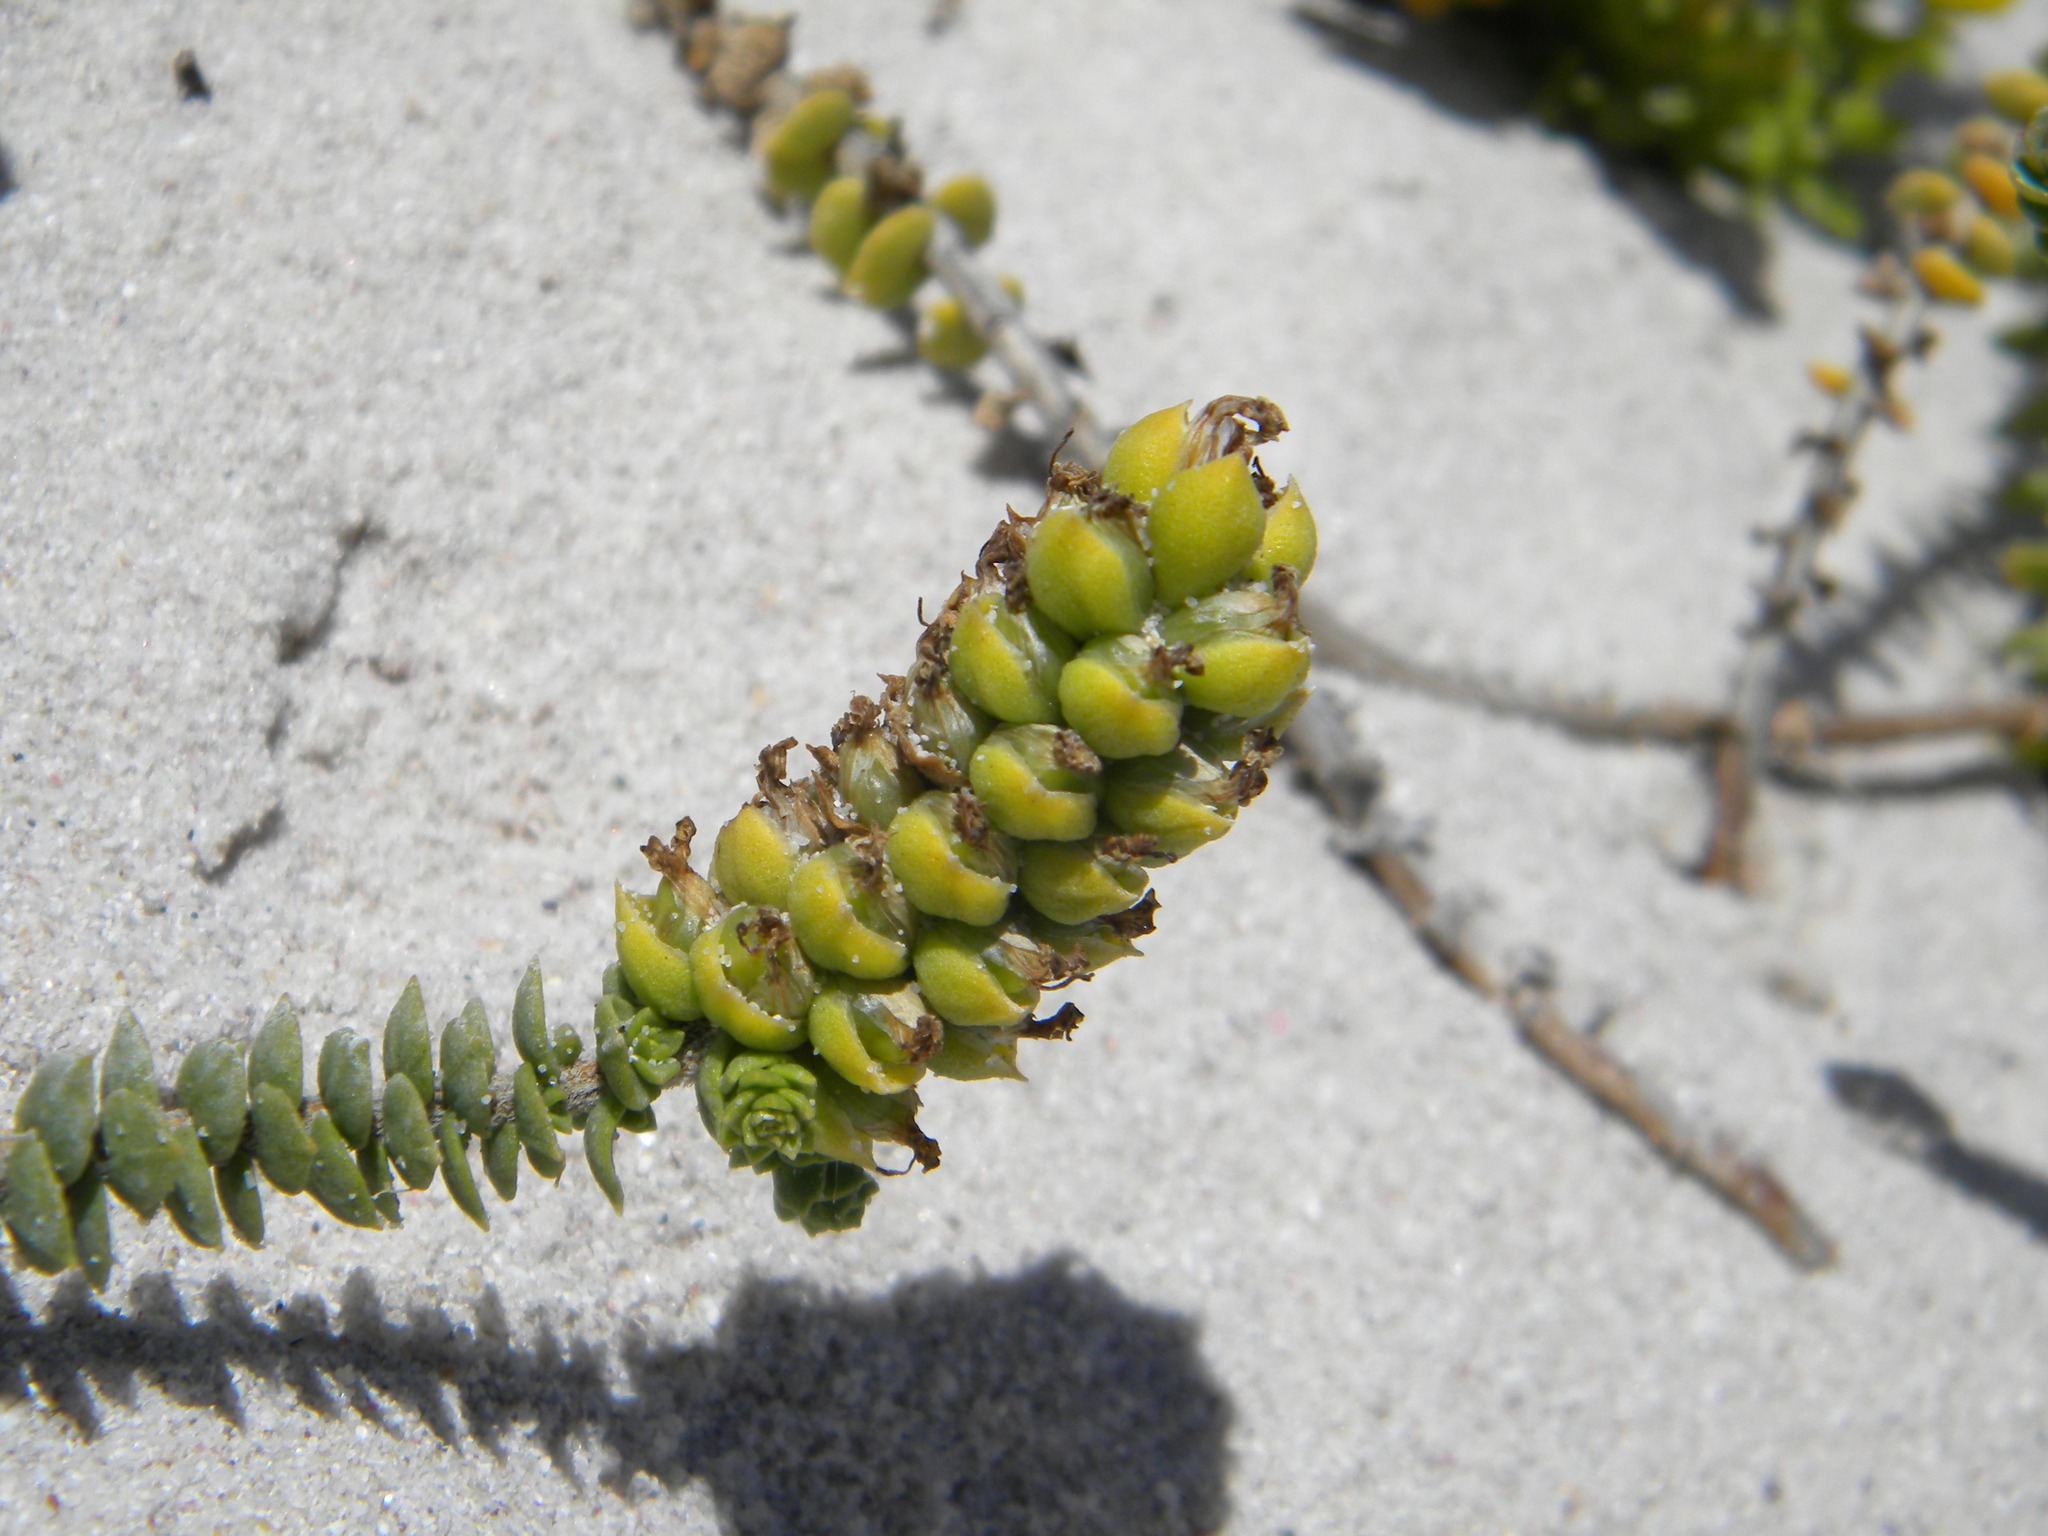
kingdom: Plantae
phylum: Tracheophyta
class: Magnoliopsida
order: Lamiales
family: Scrophulariaceae
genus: Hebenstretia
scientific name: Hebenstretia cordata
